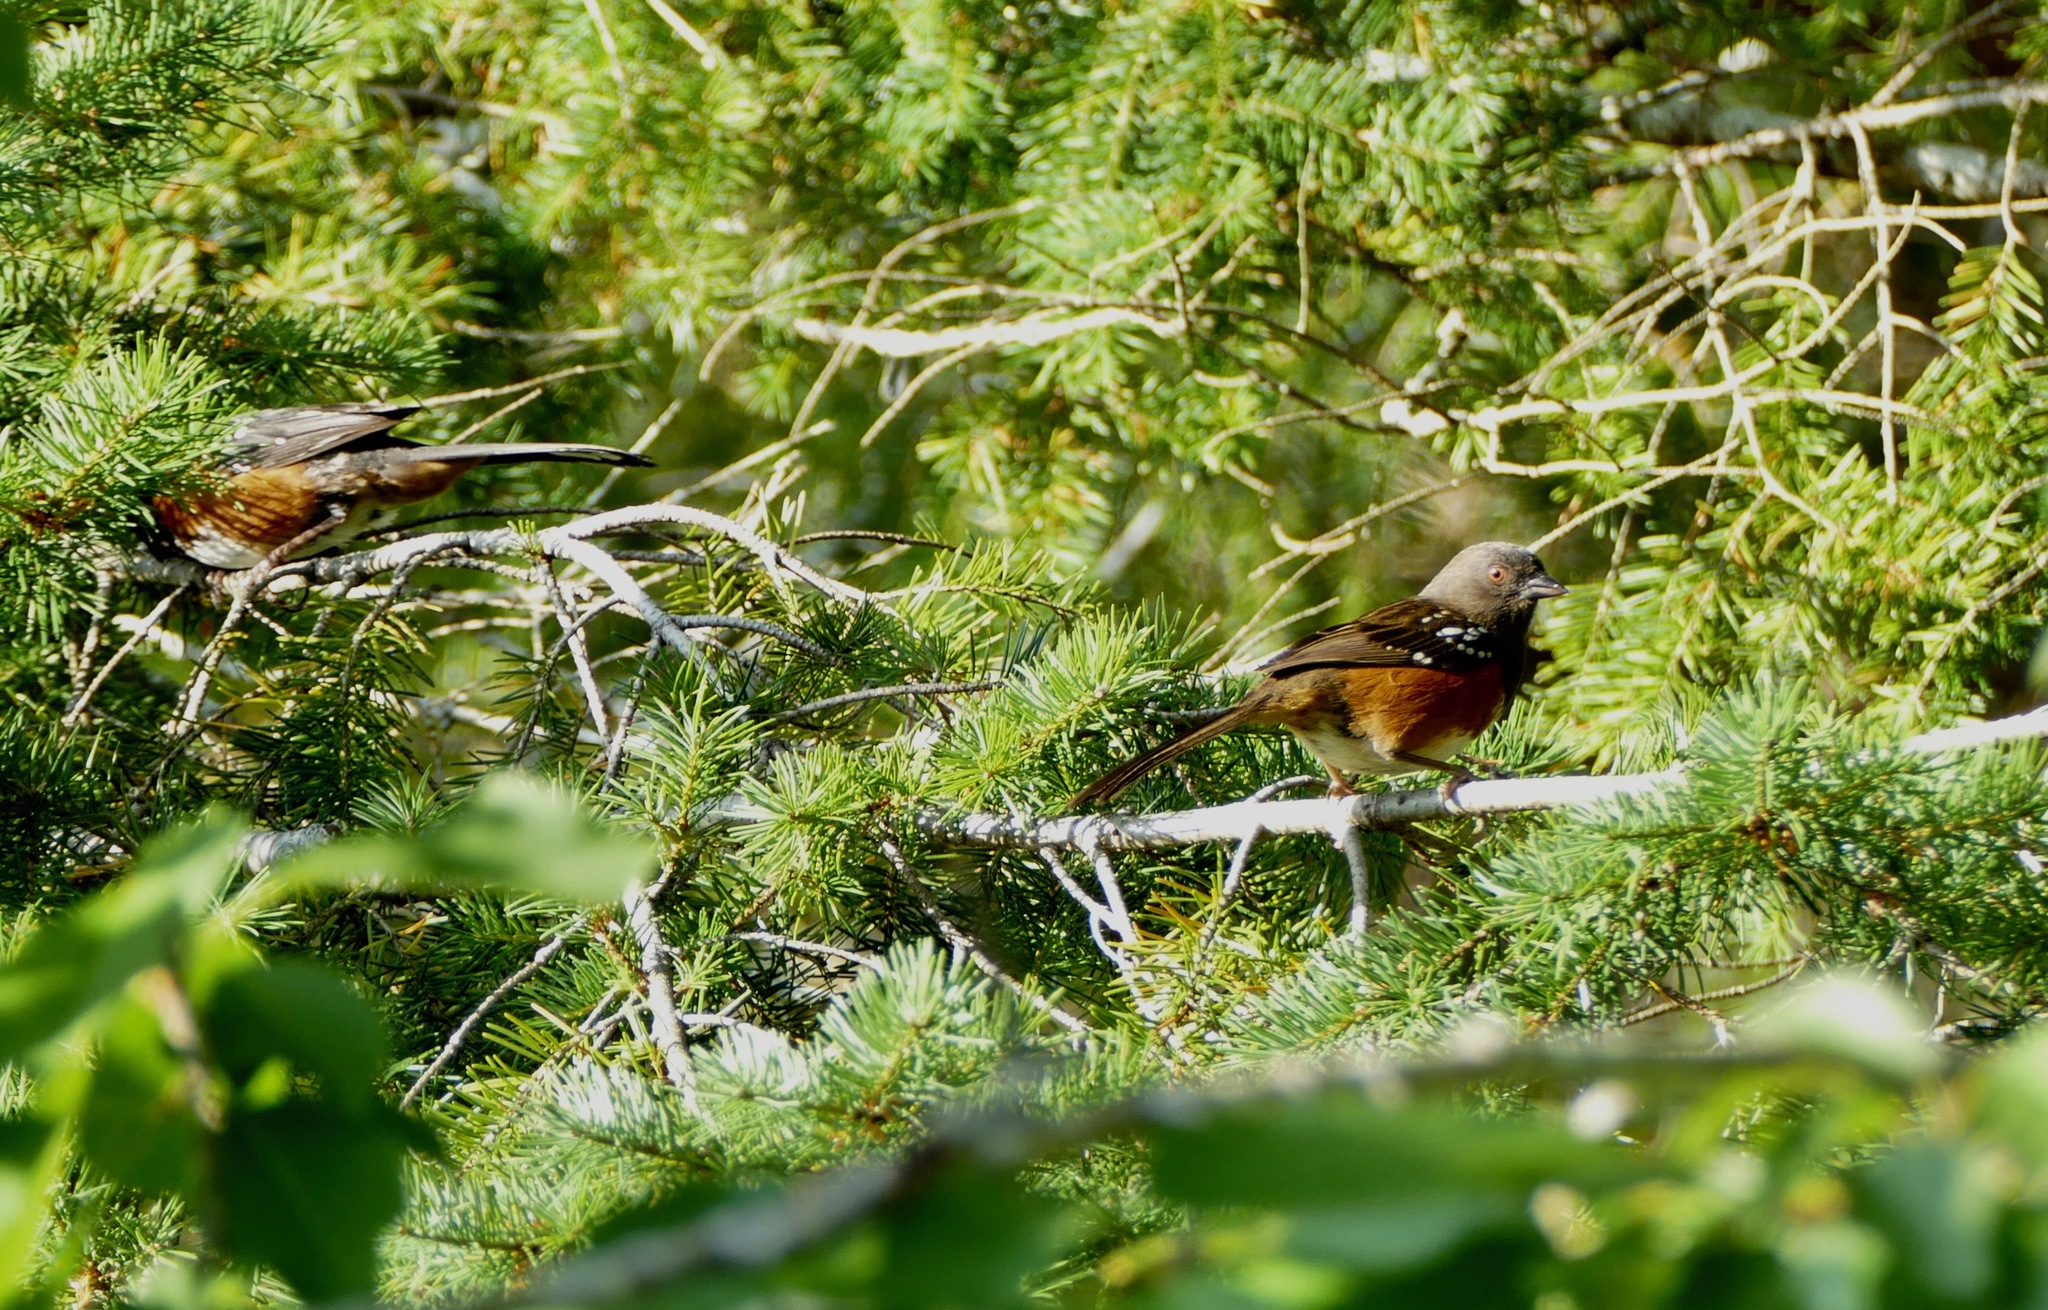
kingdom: Animalia
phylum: Chordata
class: Aves
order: Passeriformes
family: Passerellidae
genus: Pipilo
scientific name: Pipilo maculatus
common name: Spotted towhee
